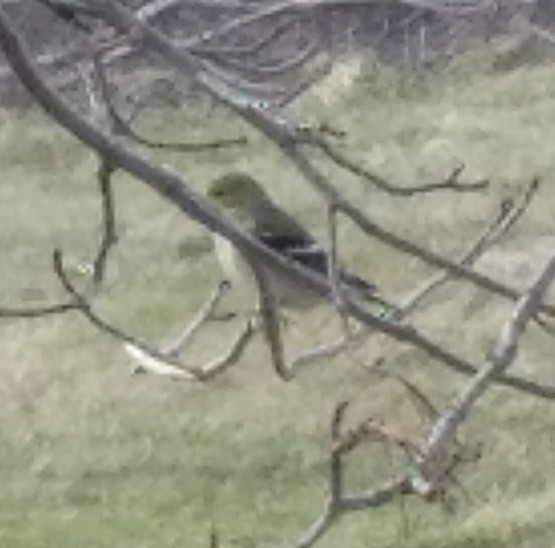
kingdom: Animalia
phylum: Chordata
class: Aves
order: Passeriformes
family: Fringillidae
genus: Spinus
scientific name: Spinus tristis
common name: American goldfinch
